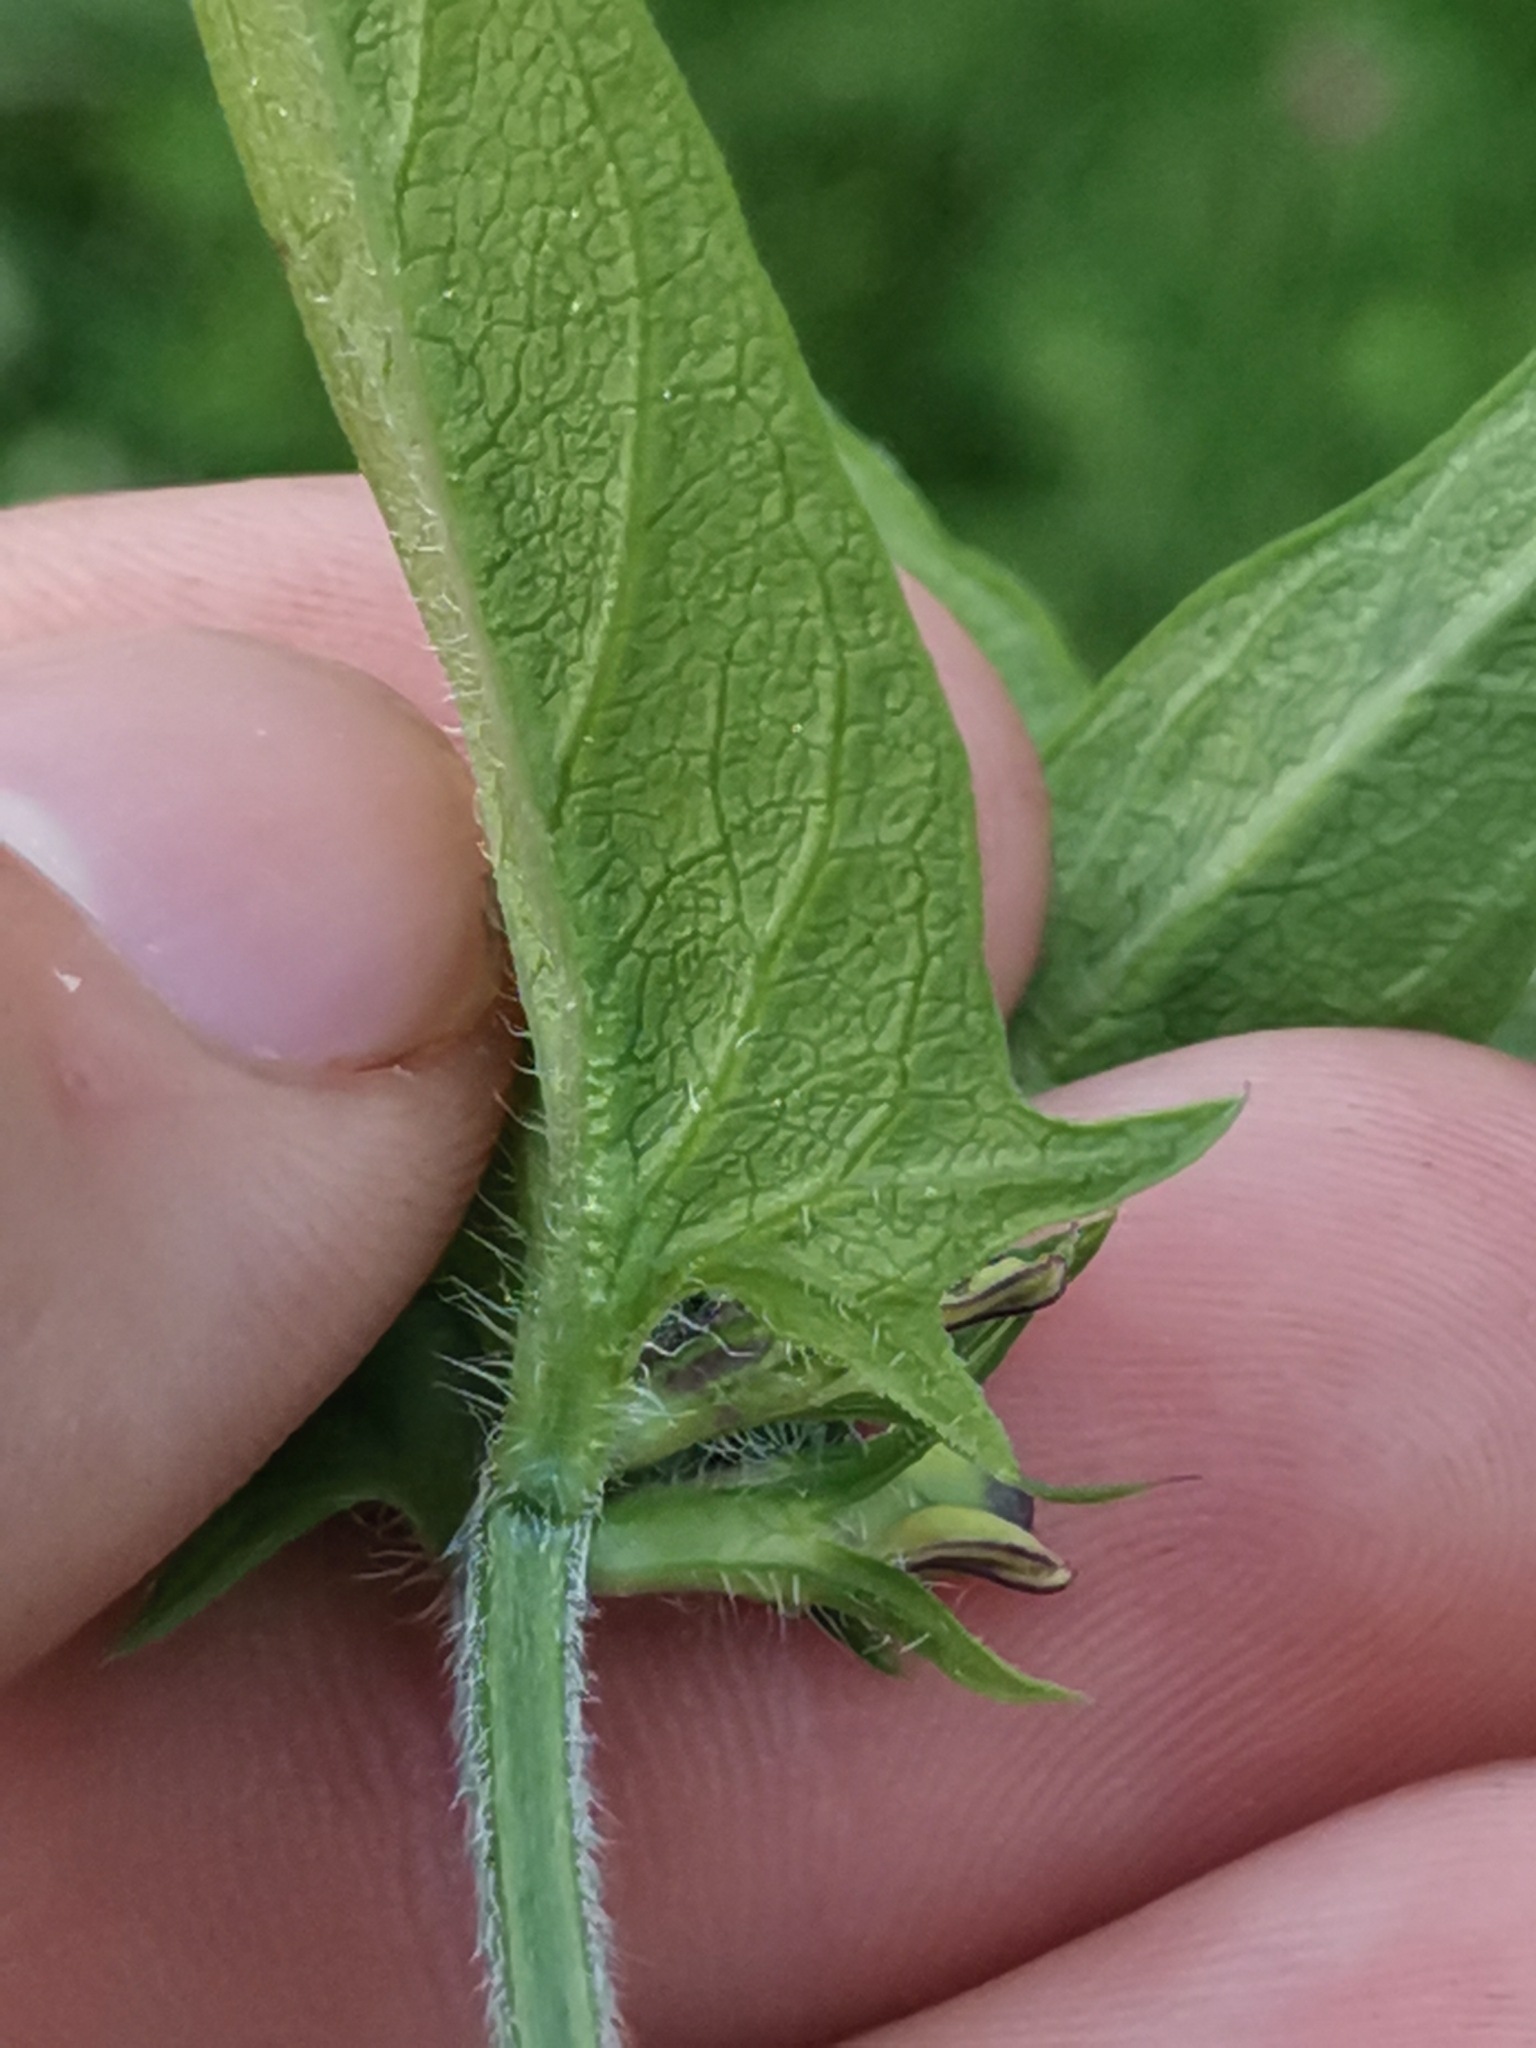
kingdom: Plantae
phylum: Tracheophyta
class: Magnoliopsida
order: Lamiales
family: Orobanchaceae
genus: Melampyrum
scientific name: Melampyrum nemorosum
